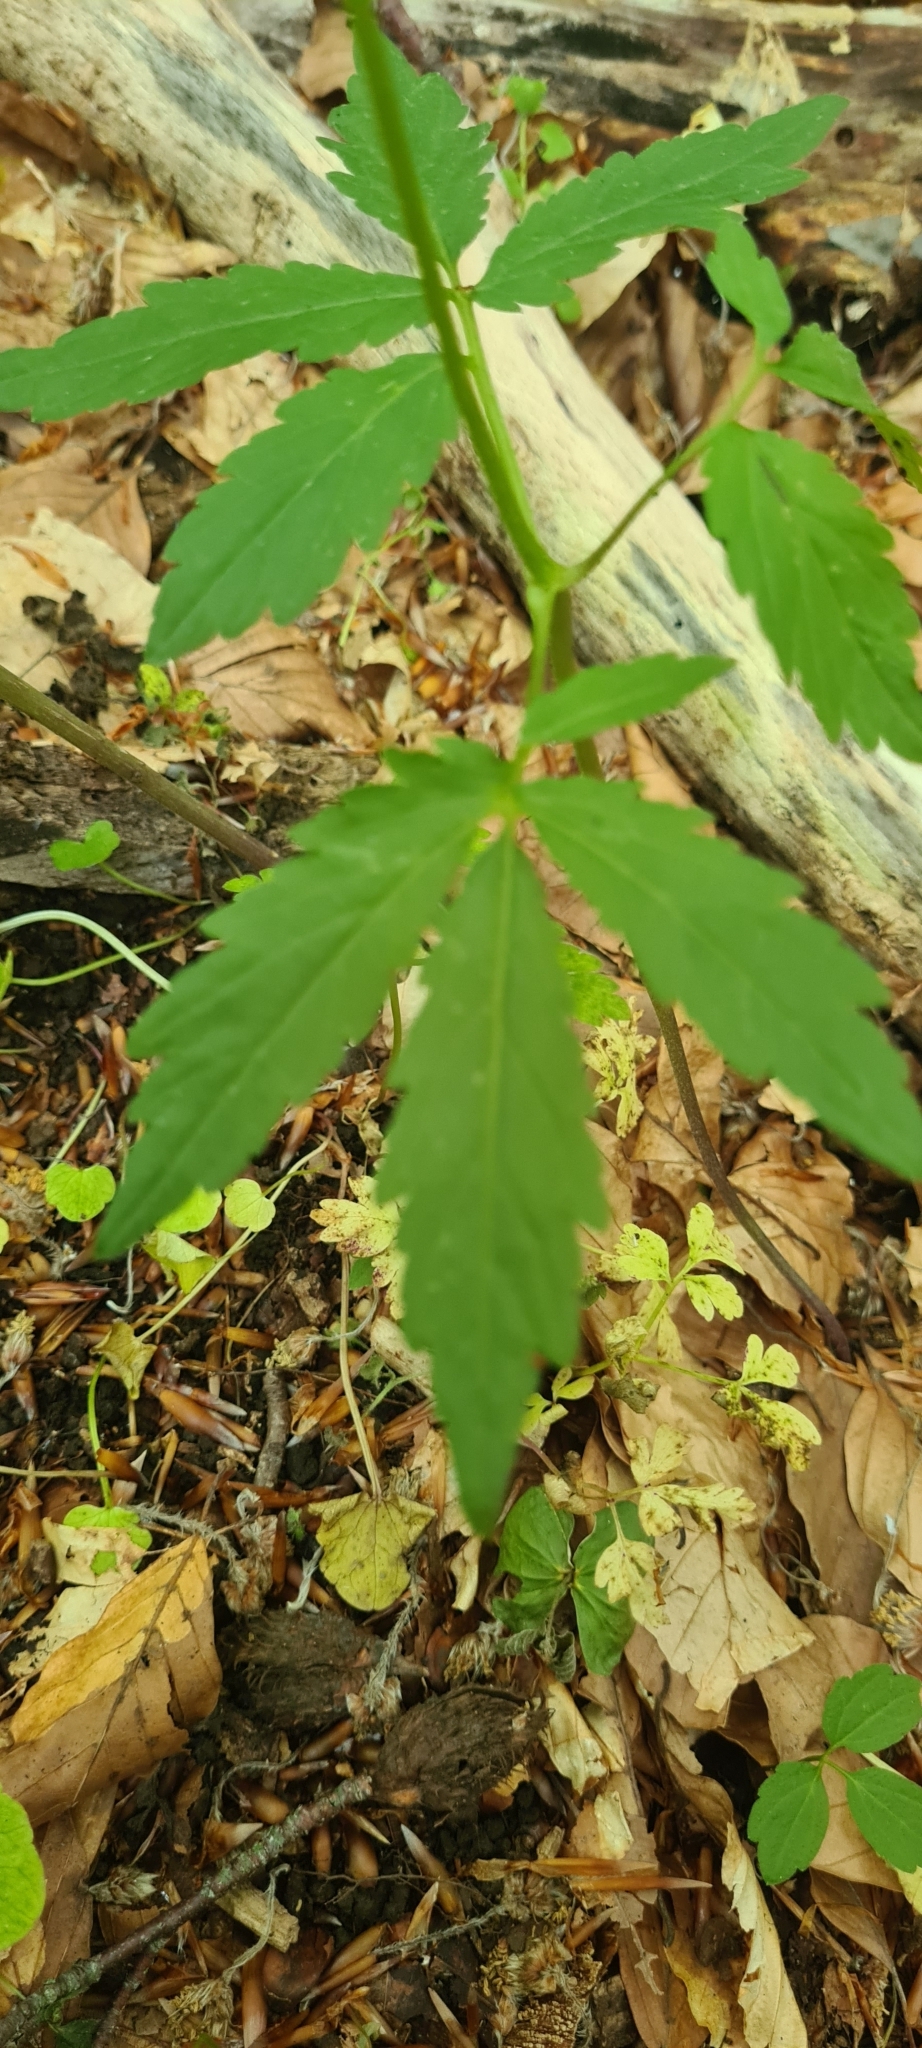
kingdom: Plantae
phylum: Tracheophyta
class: Magnoliopsida
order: Brassicales
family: Brassicaceae
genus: Cardamine
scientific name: Cardamine bulbifera
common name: Coralroot bittercress
